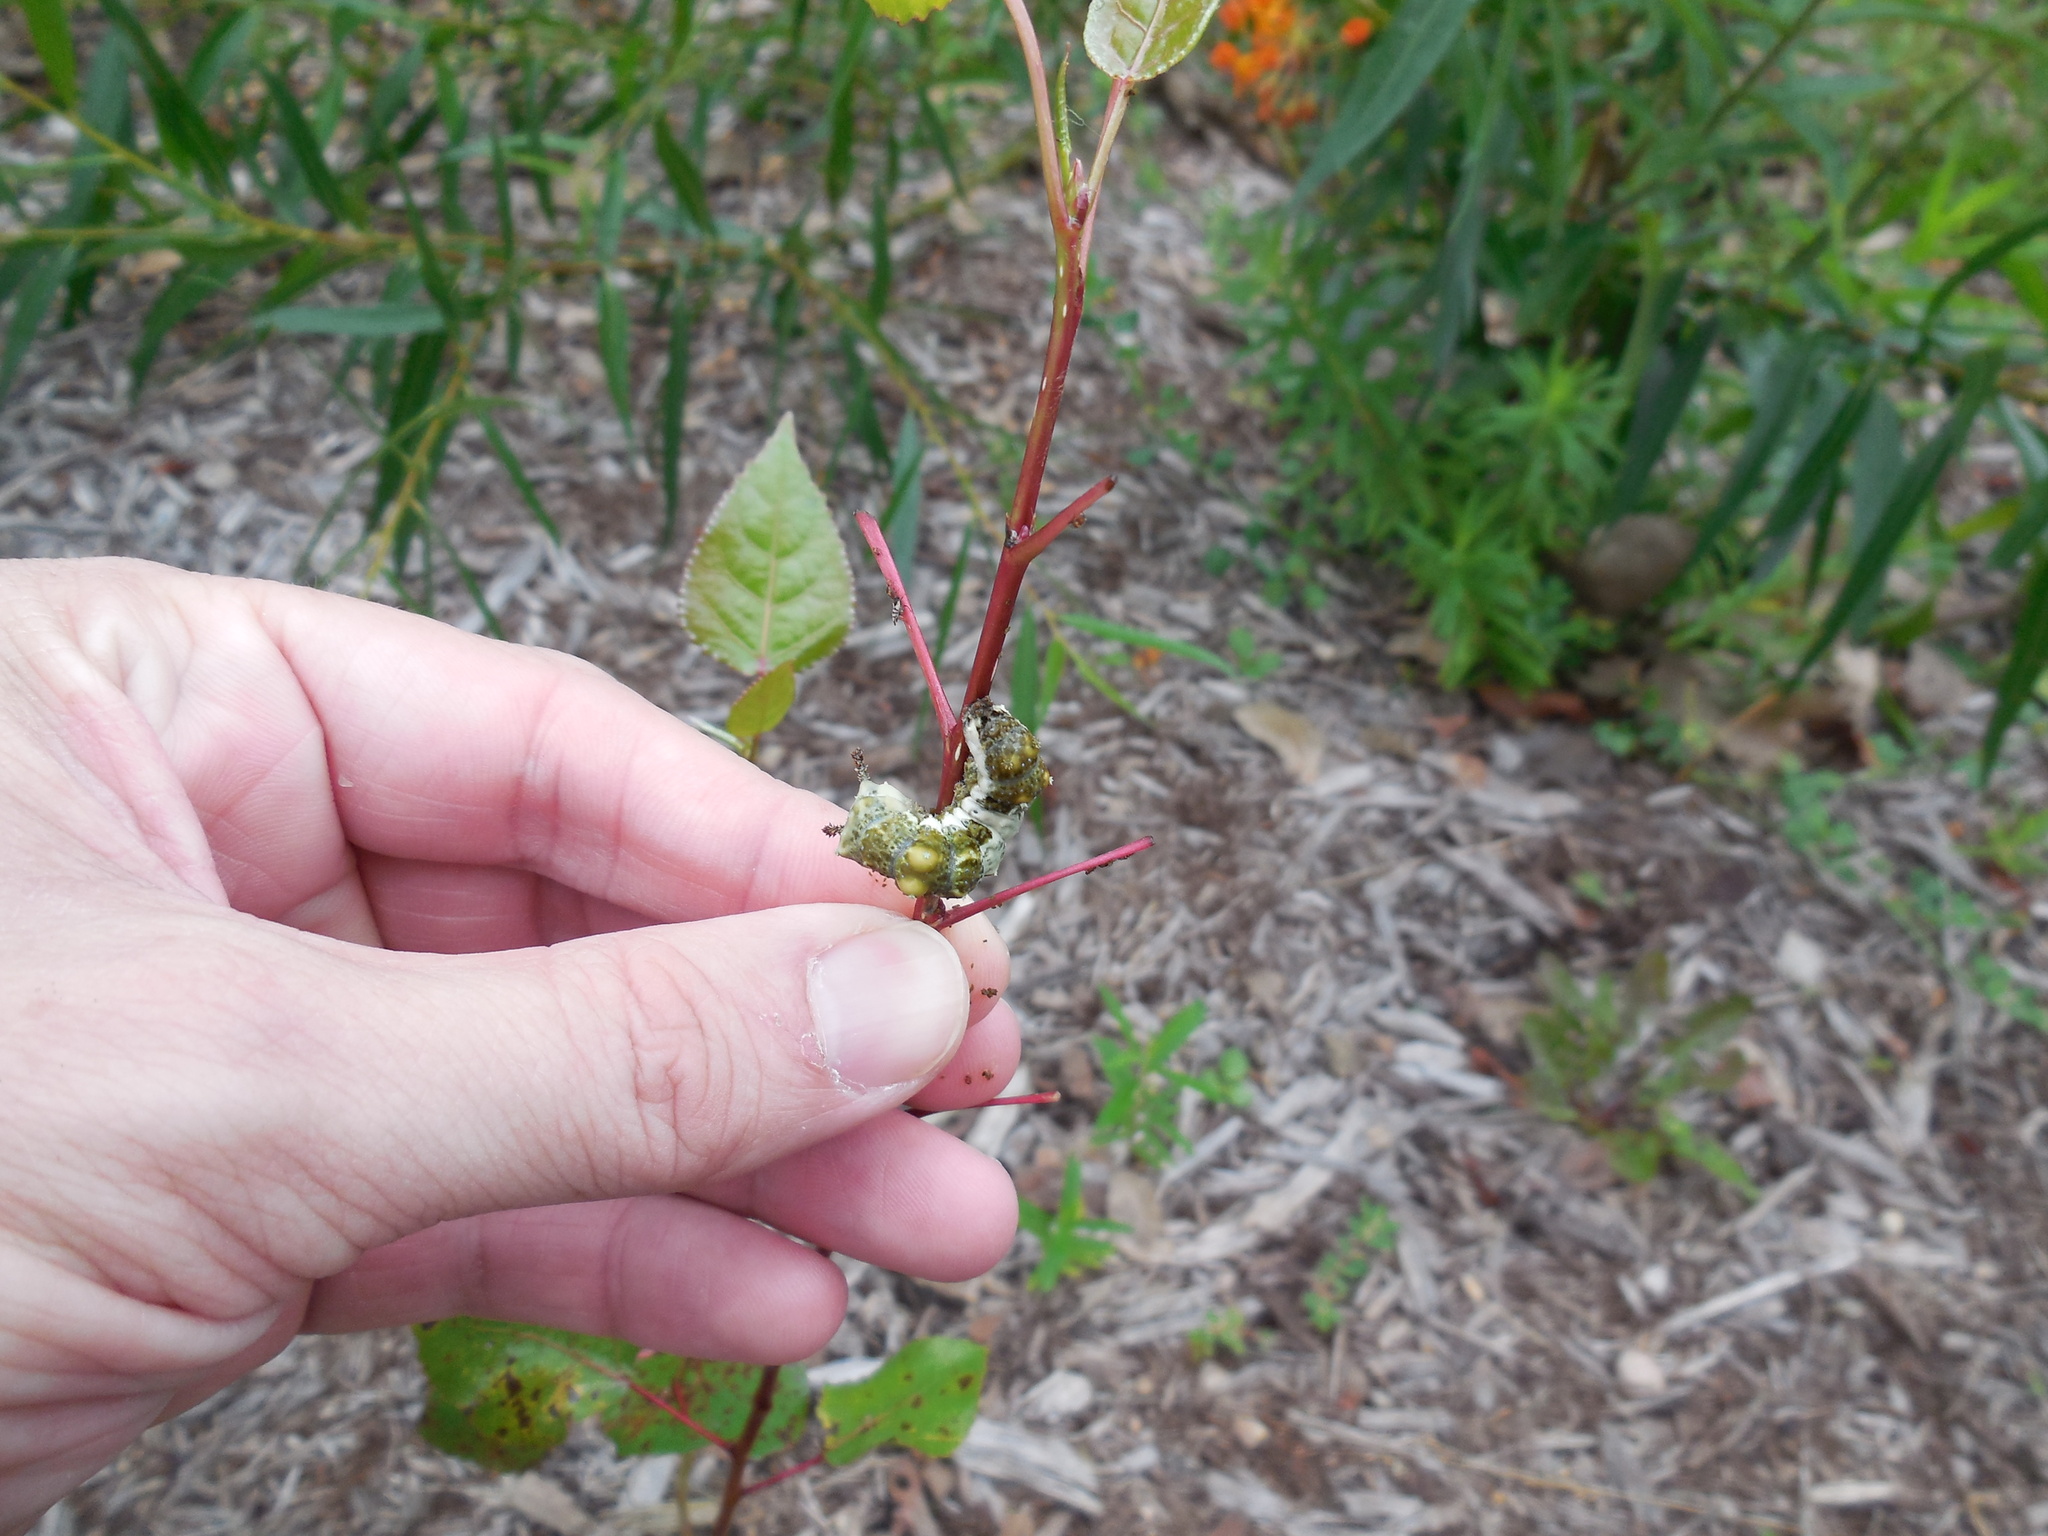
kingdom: Animalia
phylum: Arthropoda
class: Insecta
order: Lepidoptera
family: Nymphalidae
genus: Limenitis
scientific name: Limenitis archippus
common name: Viceroy
